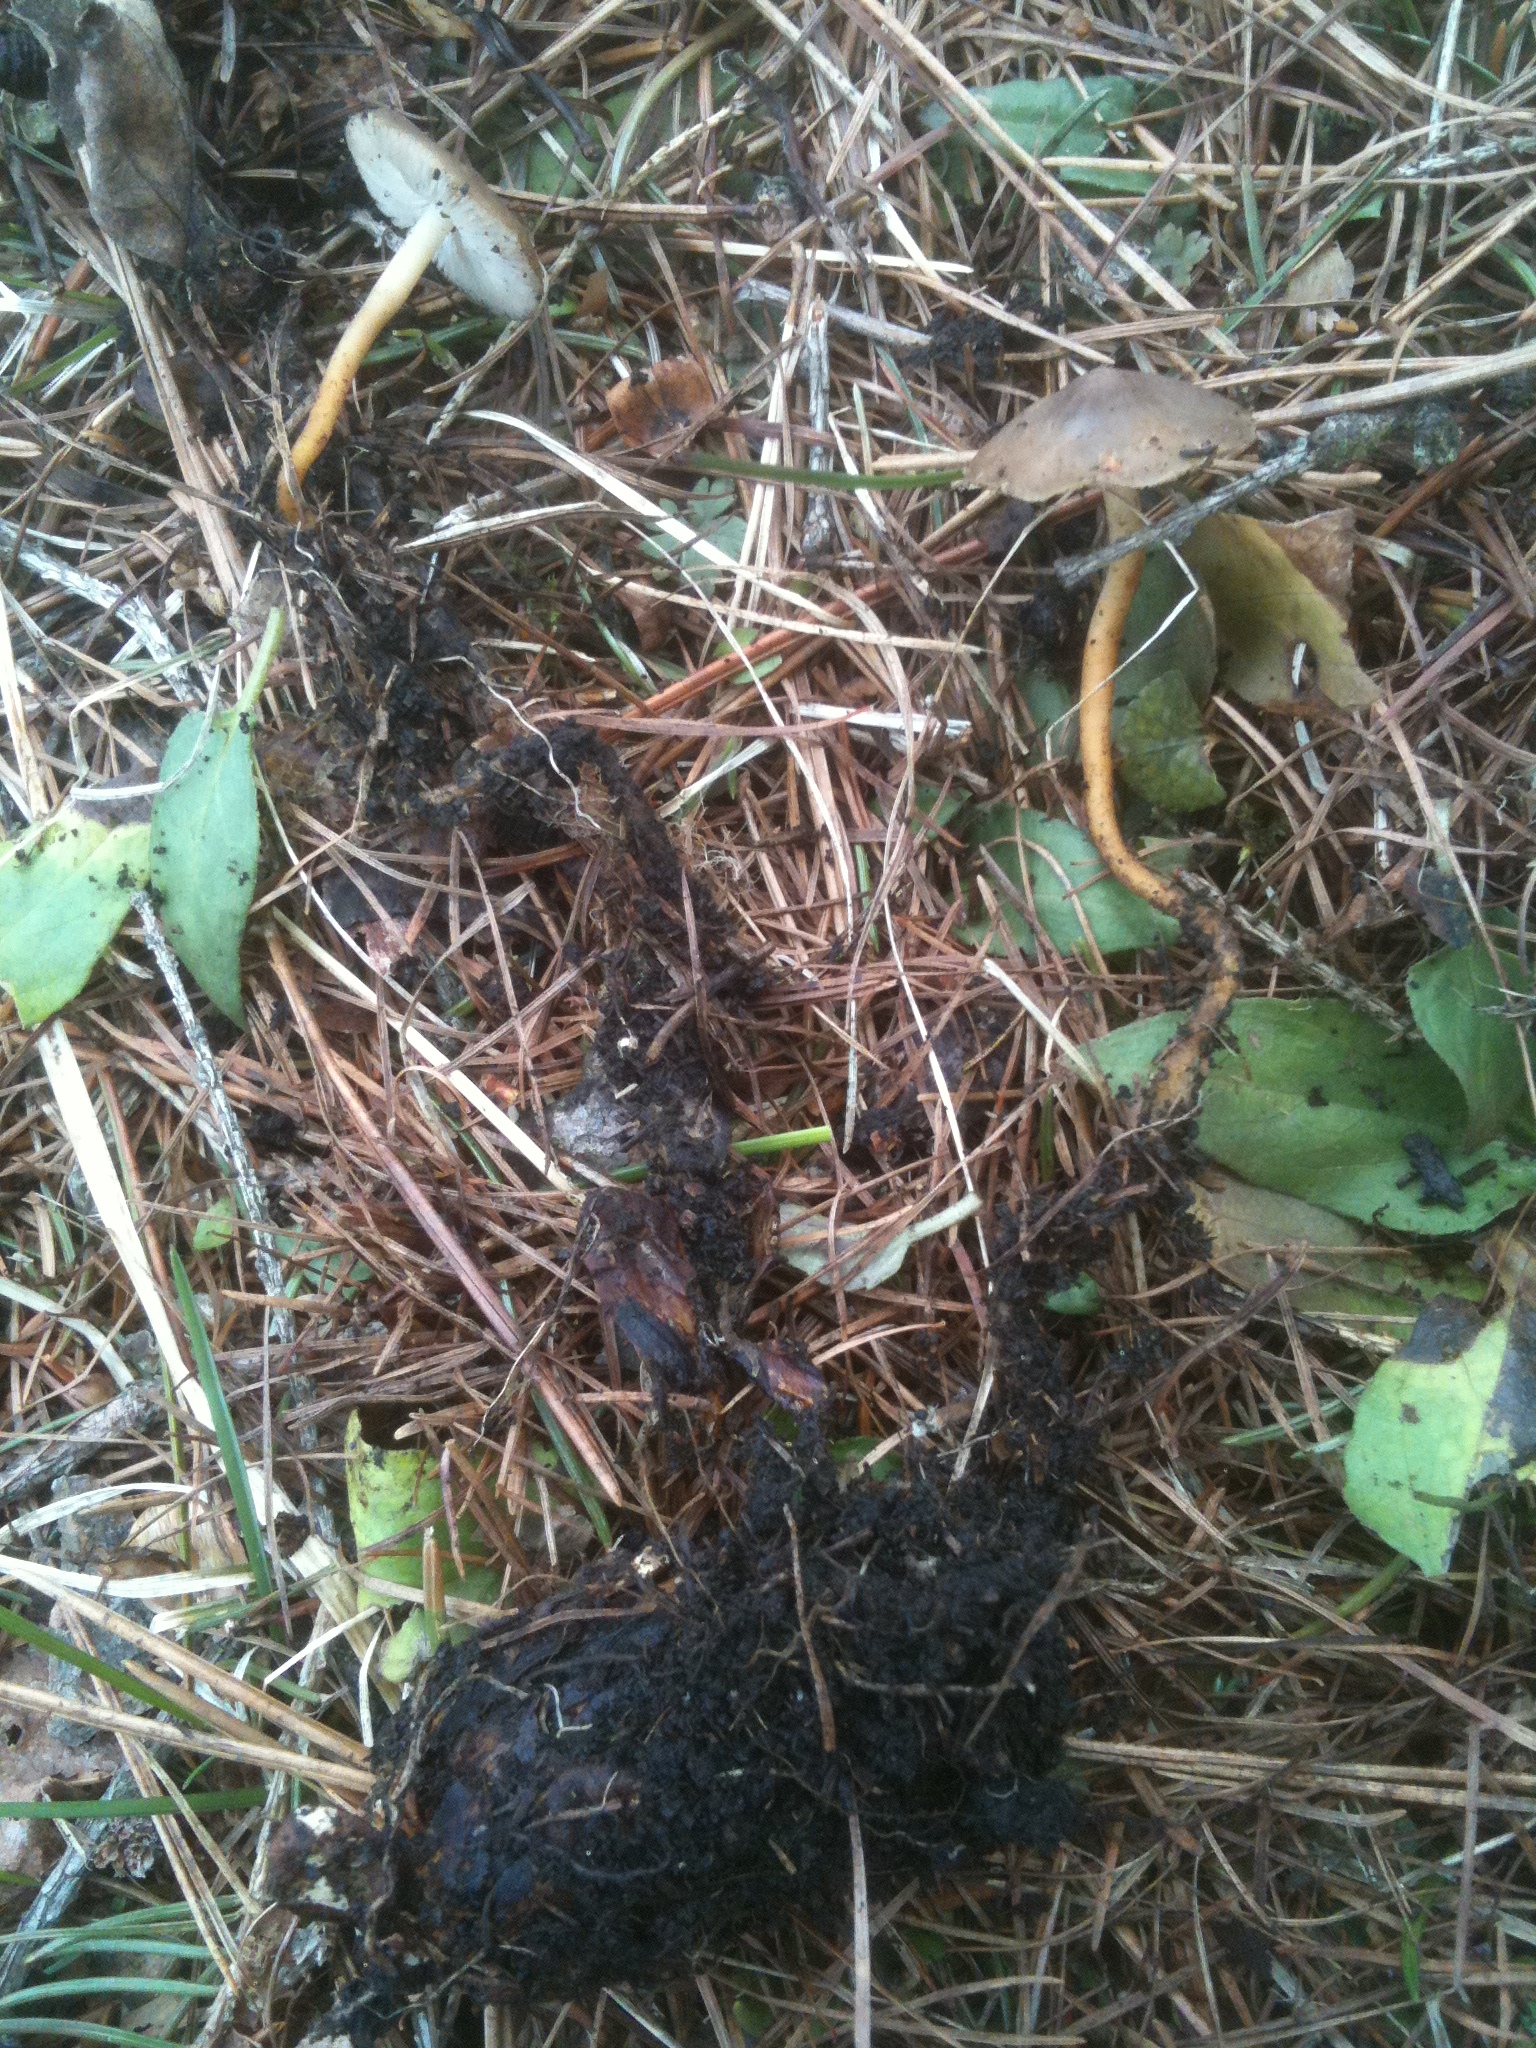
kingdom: Fungi
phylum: Basidiomycota
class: Agaricomycetes
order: Agaricales
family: Physalacriaceae
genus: Strobilurus
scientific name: Strobilurus stephanocystis
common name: Russian conecap
